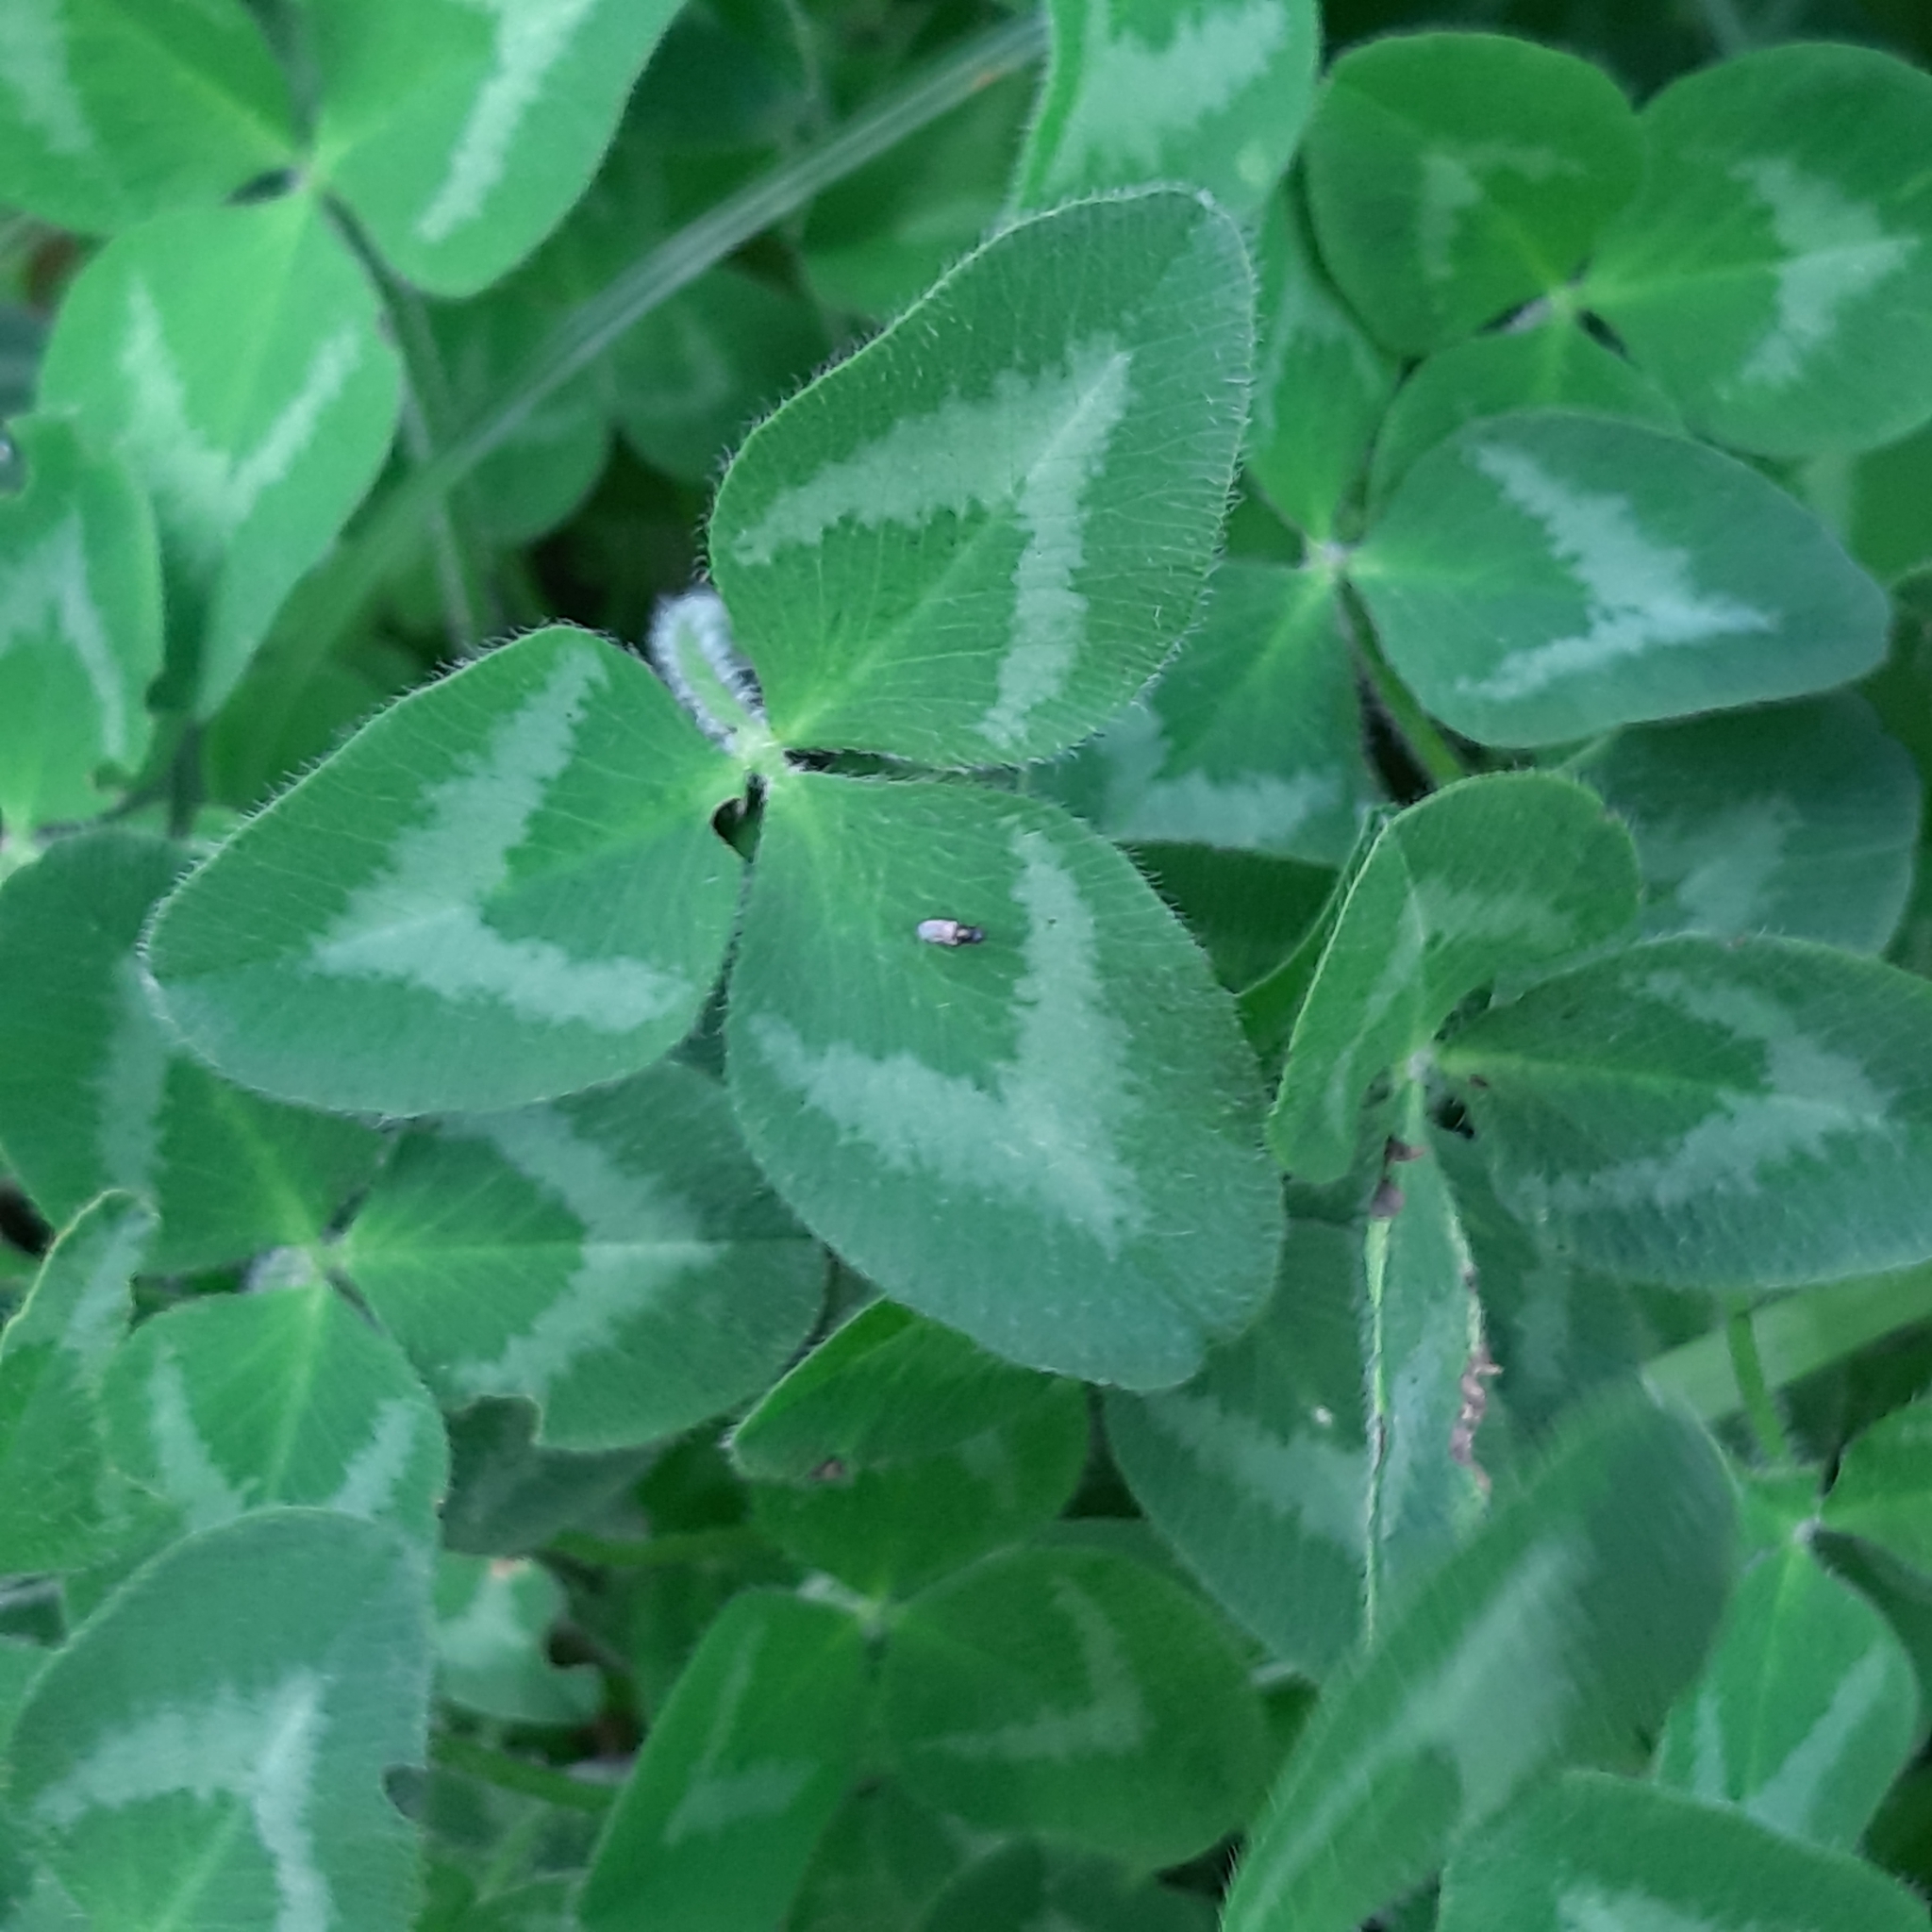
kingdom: Plantae
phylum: Tracheophyta
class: Magnoliopsida
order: Fabales
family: Fabaceae
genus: Trifolium
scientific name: Trifolium pratense
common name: Red clover
